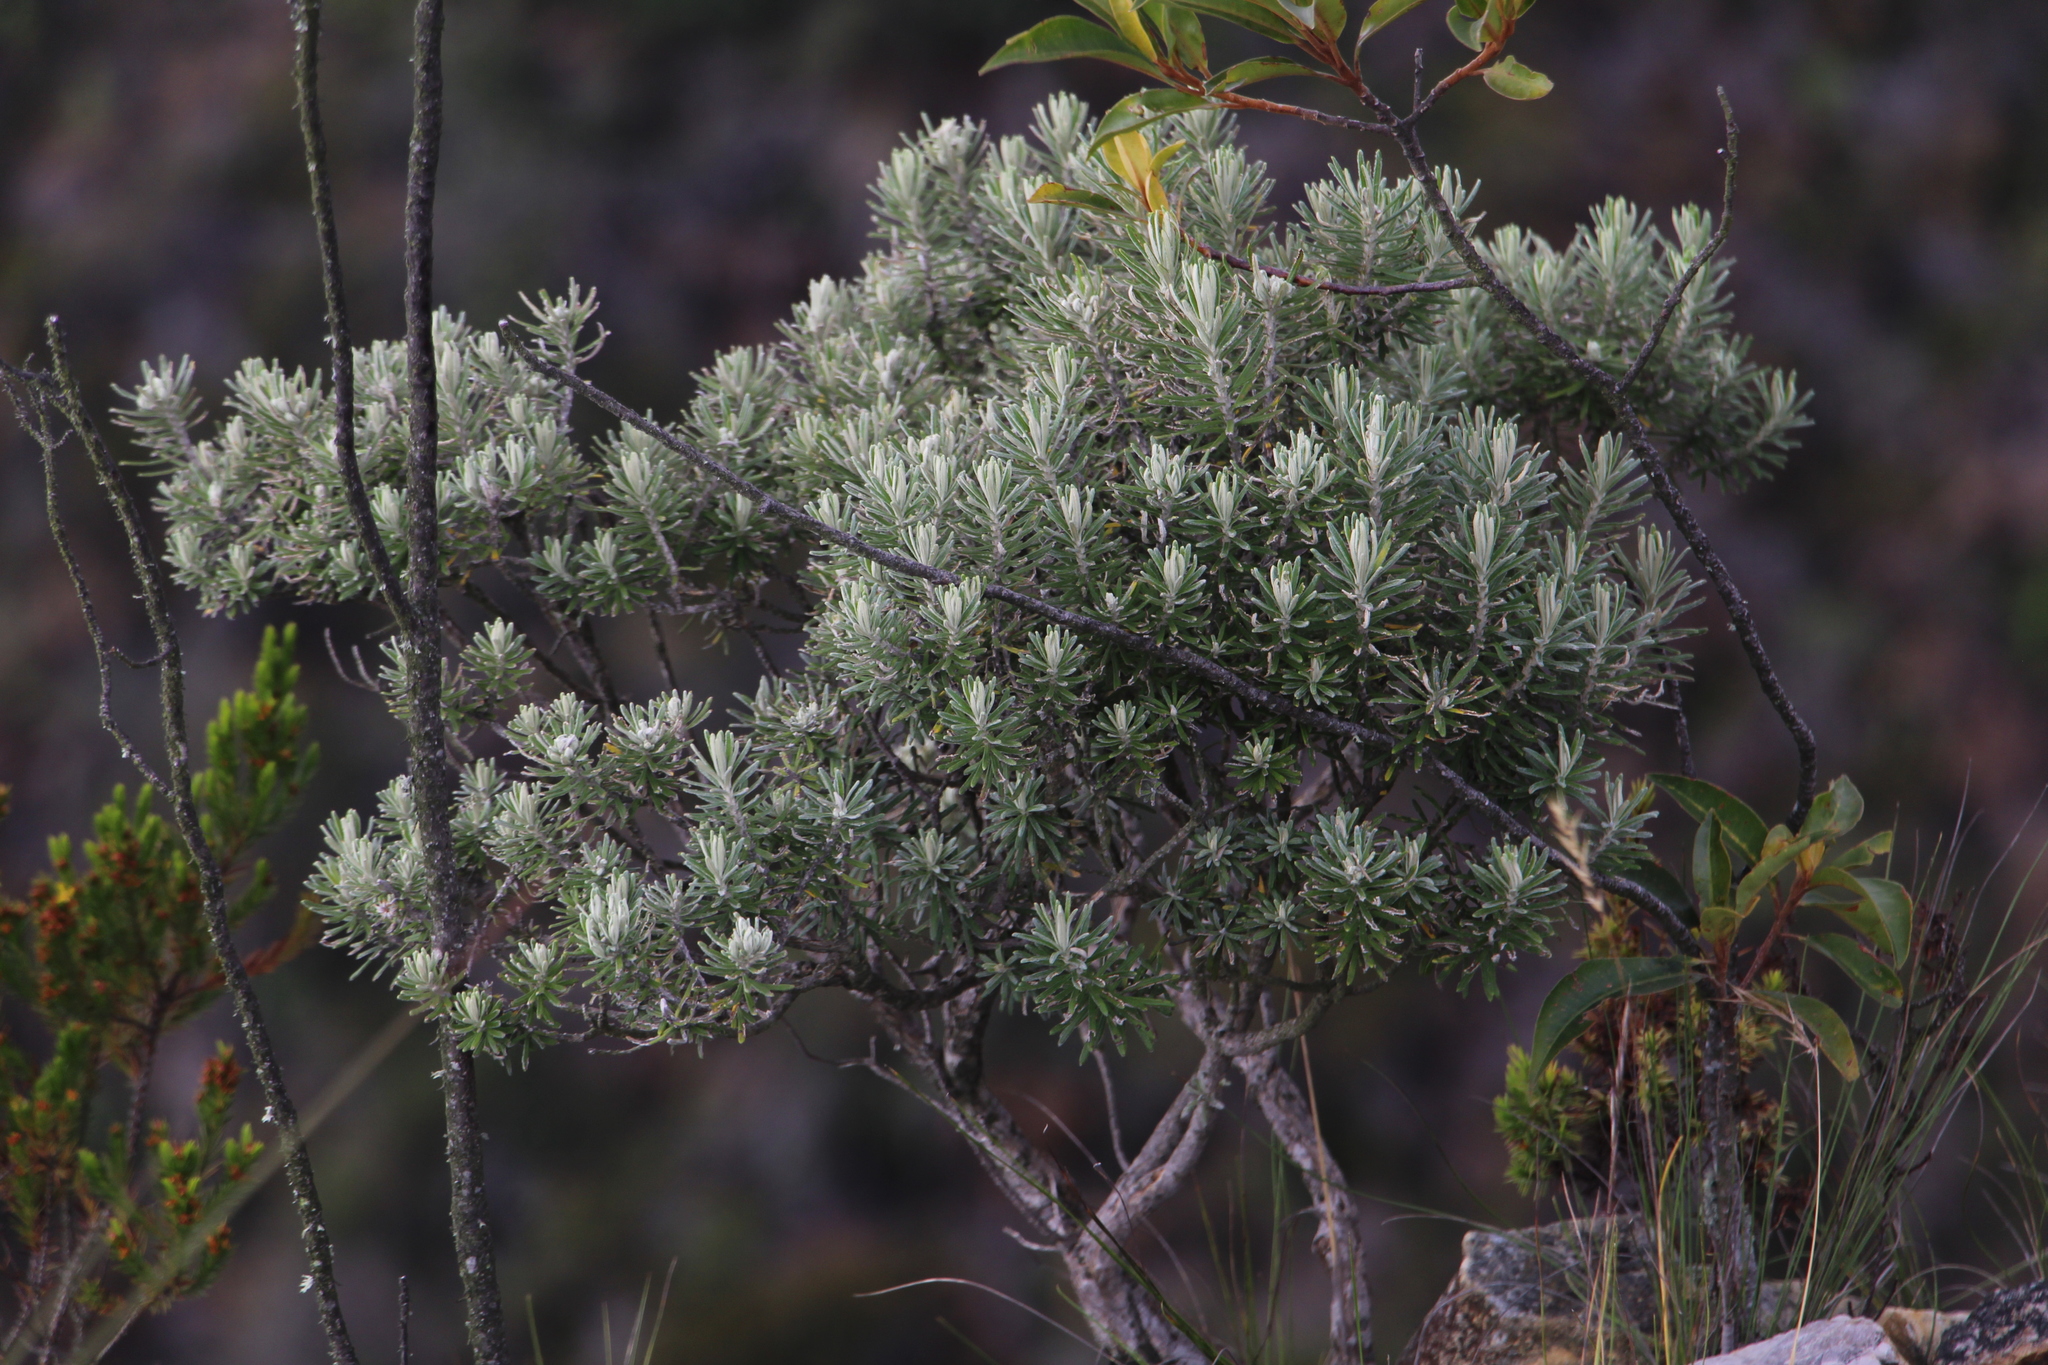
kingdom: Plantae
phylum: Tracheophyta
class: Magnoliopsida
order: Asterales
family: Asteraceae
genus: Linochilus
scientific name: Linochilus rosmarinifolius
